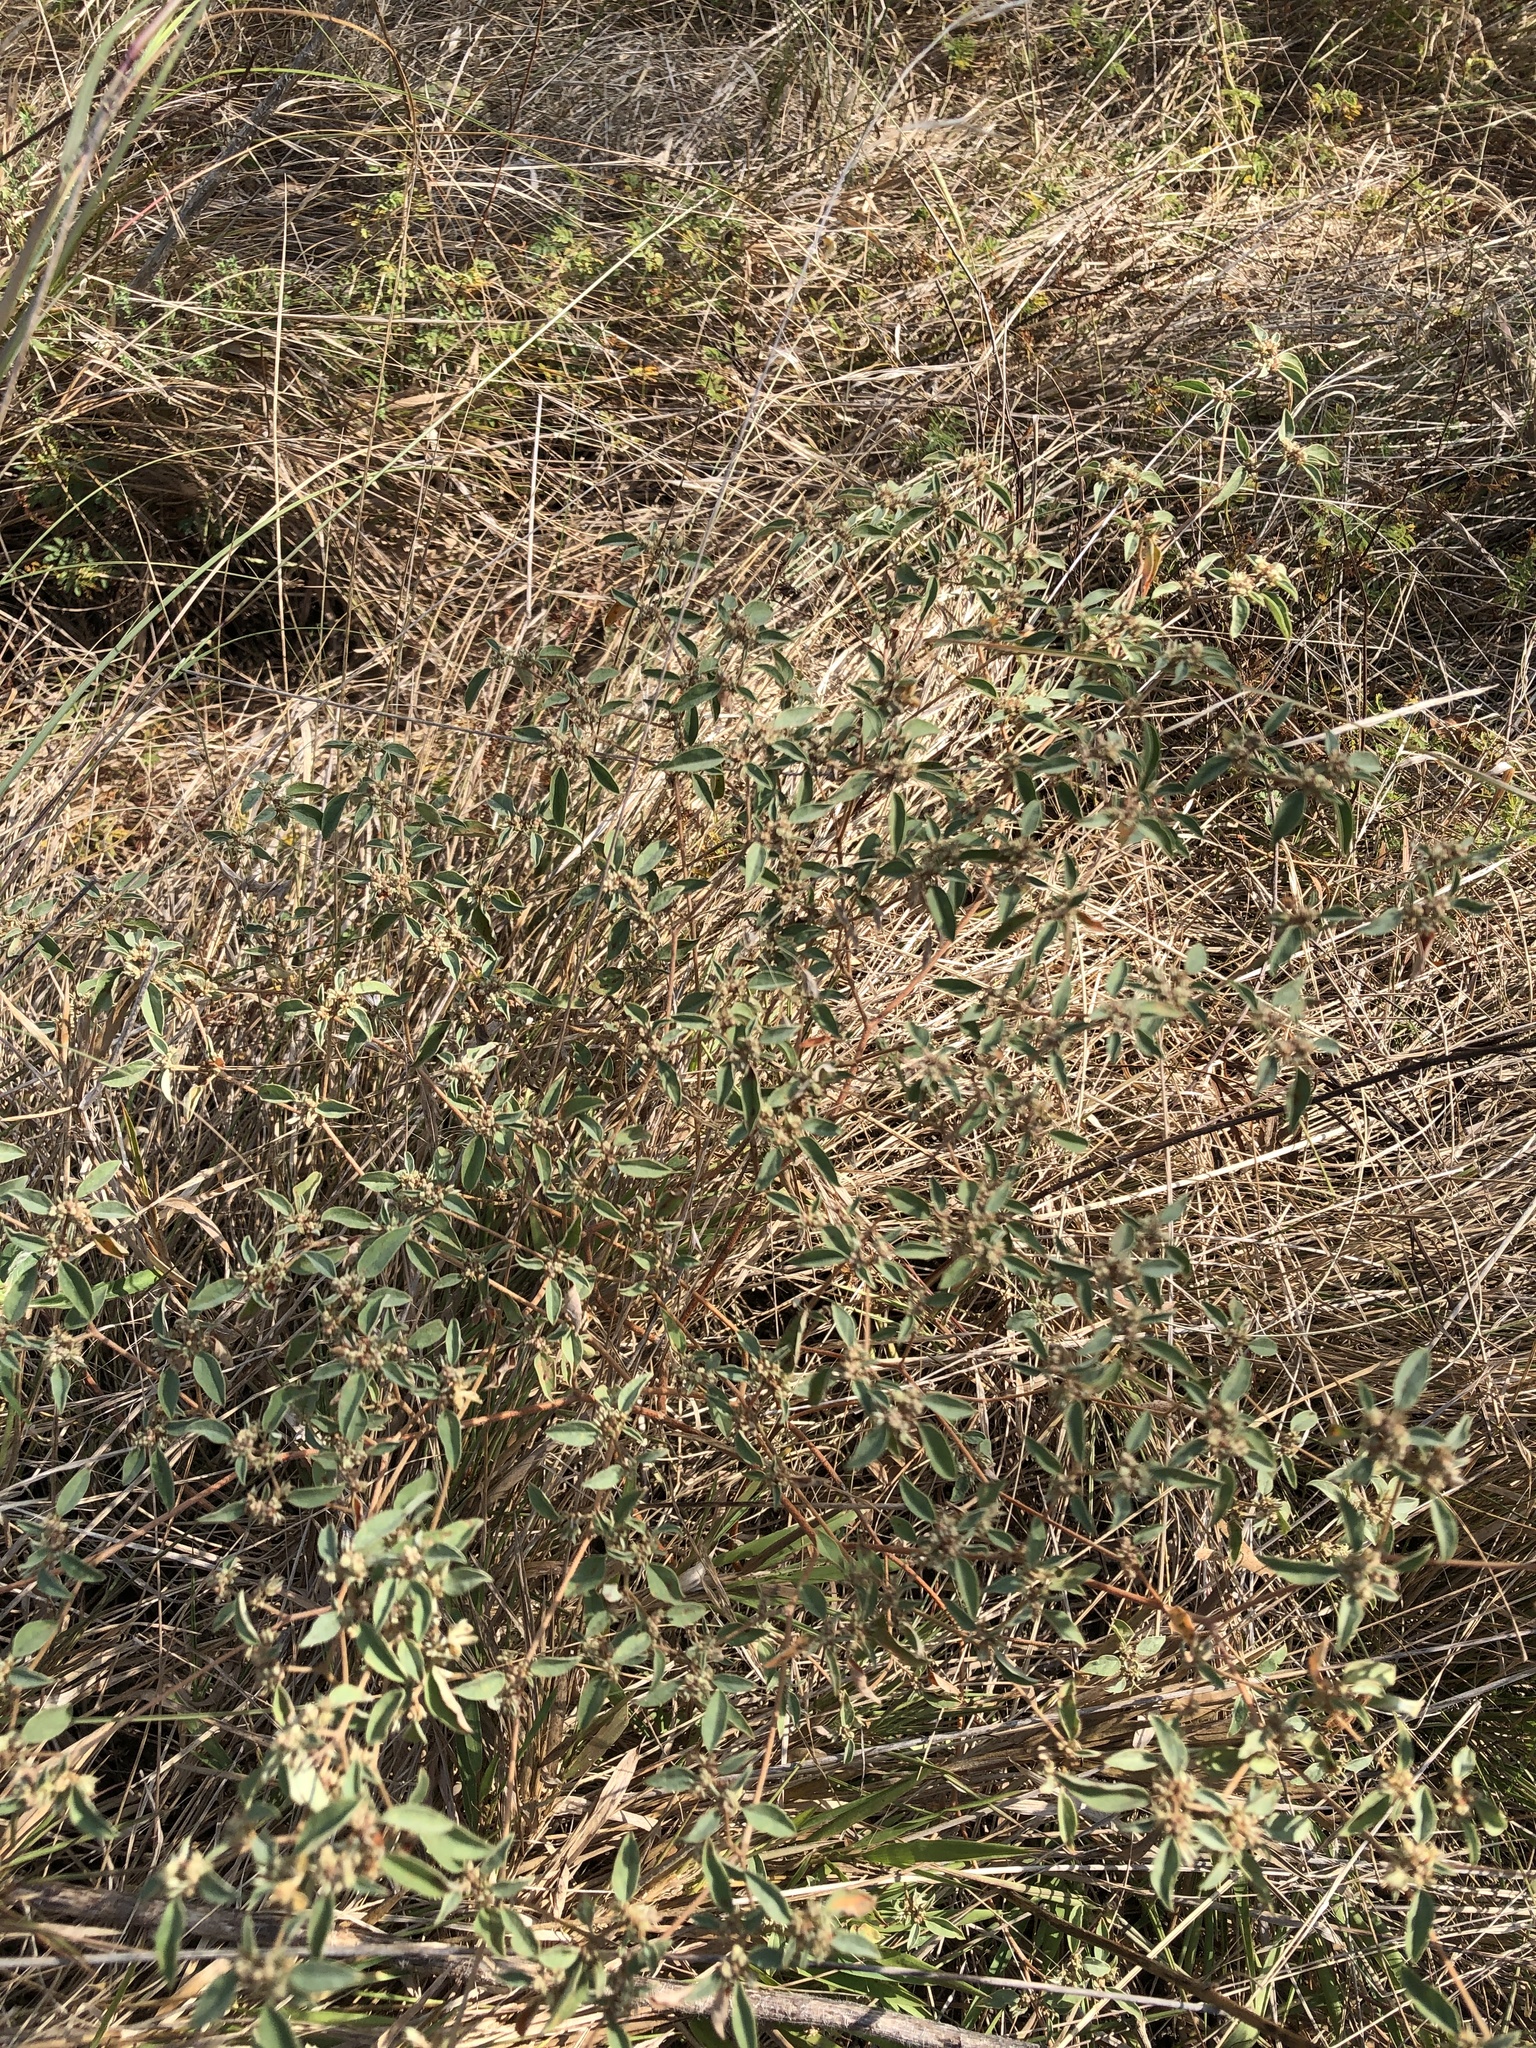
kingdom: Plantae
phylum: Tracheophyta
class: Magnoliopsida
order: Malpighiales
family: Euphorbiaceae
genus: Croton
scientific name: Croton monanthogynus
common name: One-seed croton
